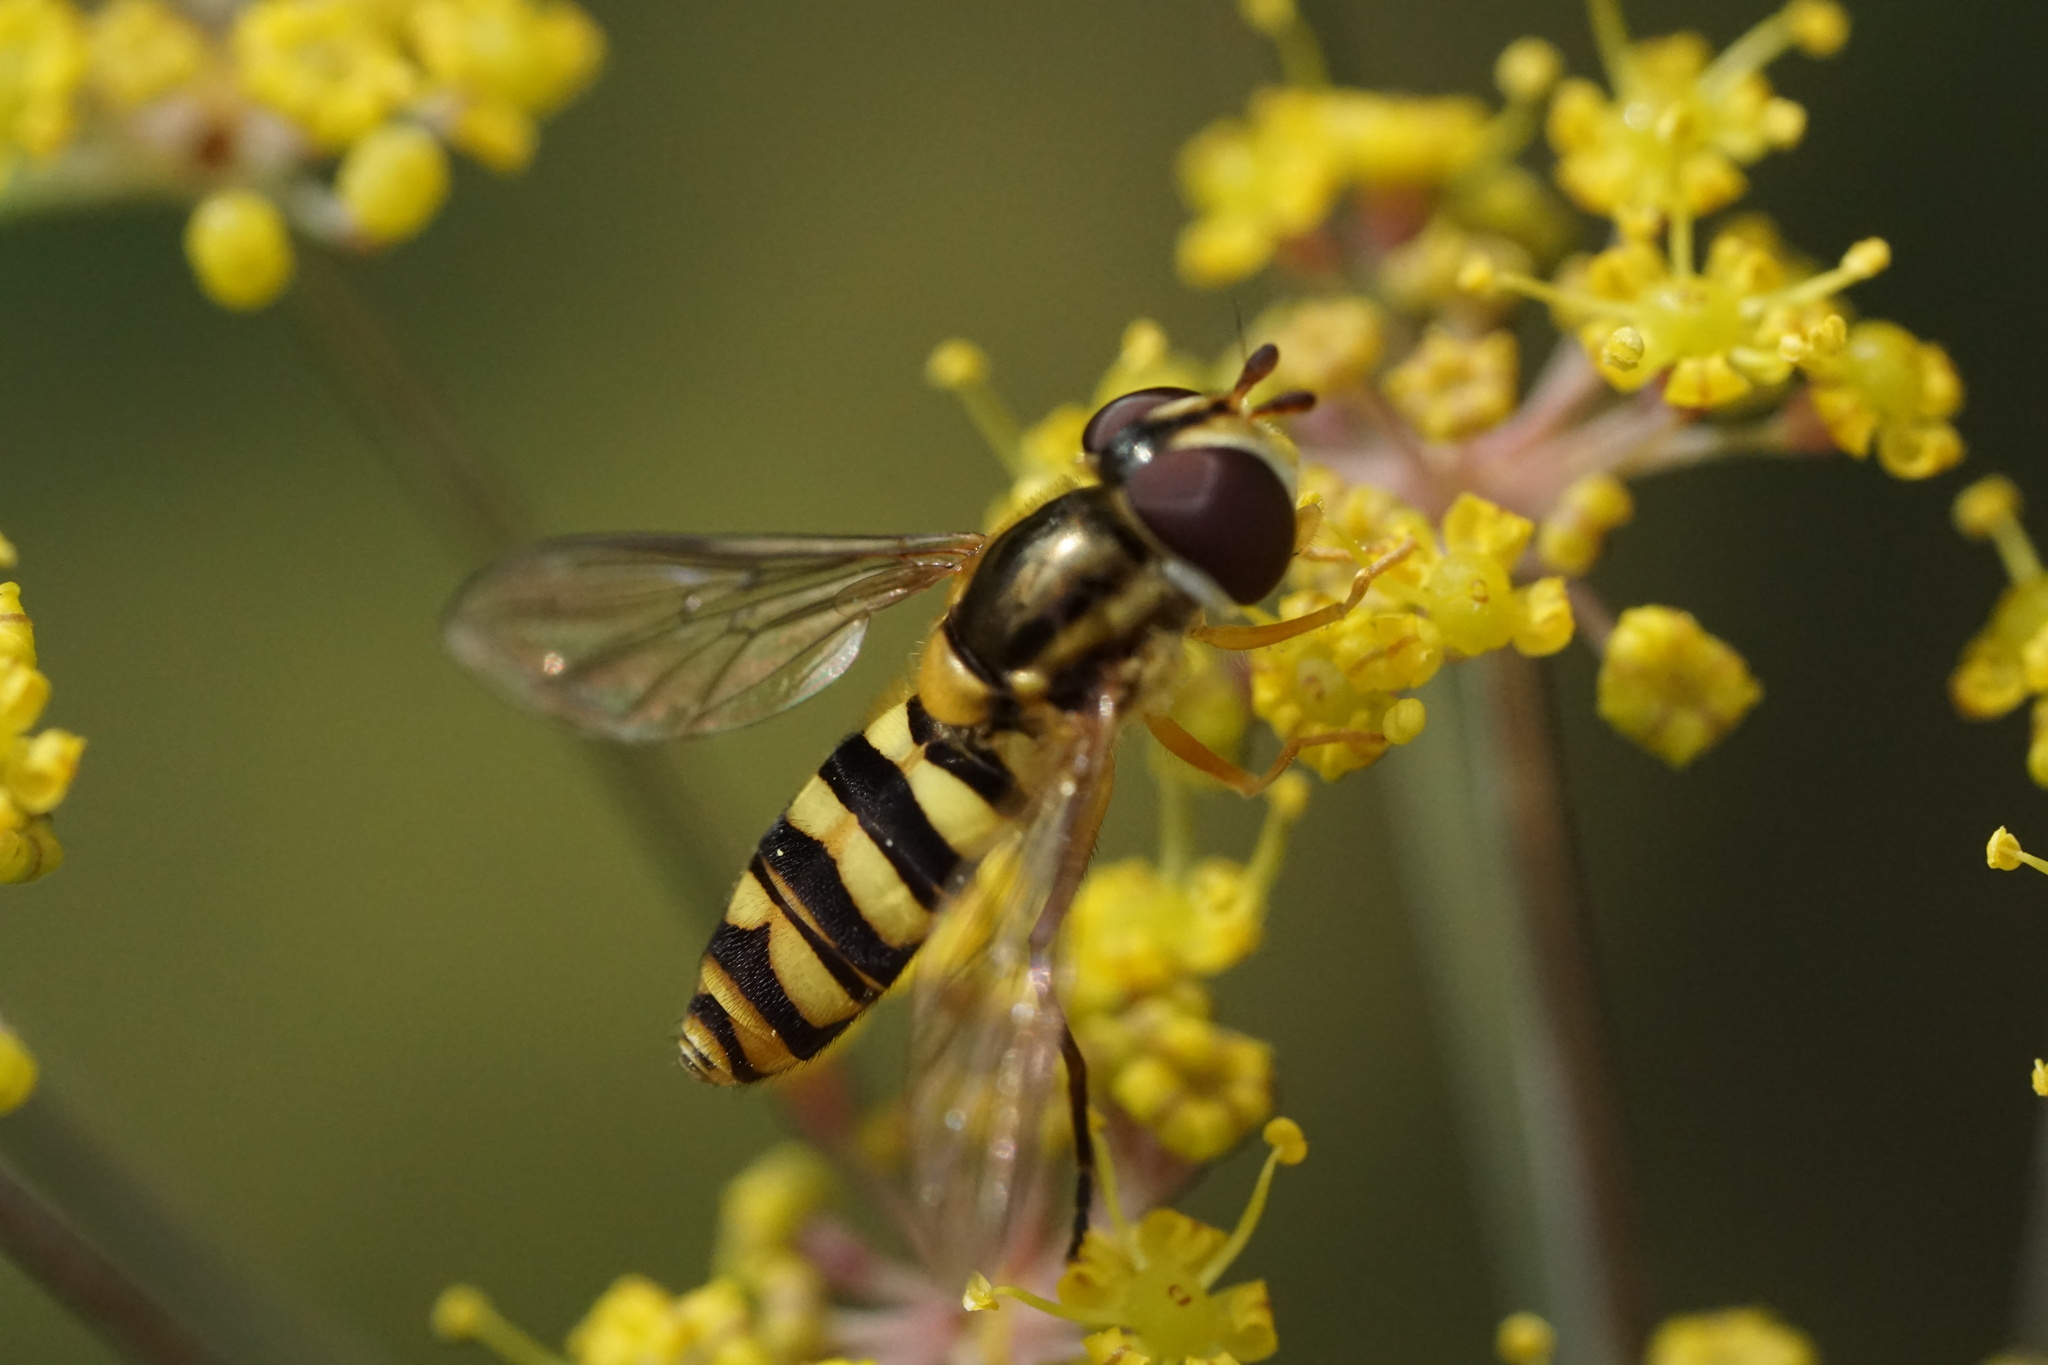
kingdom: Animalia
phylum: Arthropoda
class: Insecta
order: Diptera
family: Syrphidae
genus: Epistrophella
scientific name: Epistrophella emarginata
